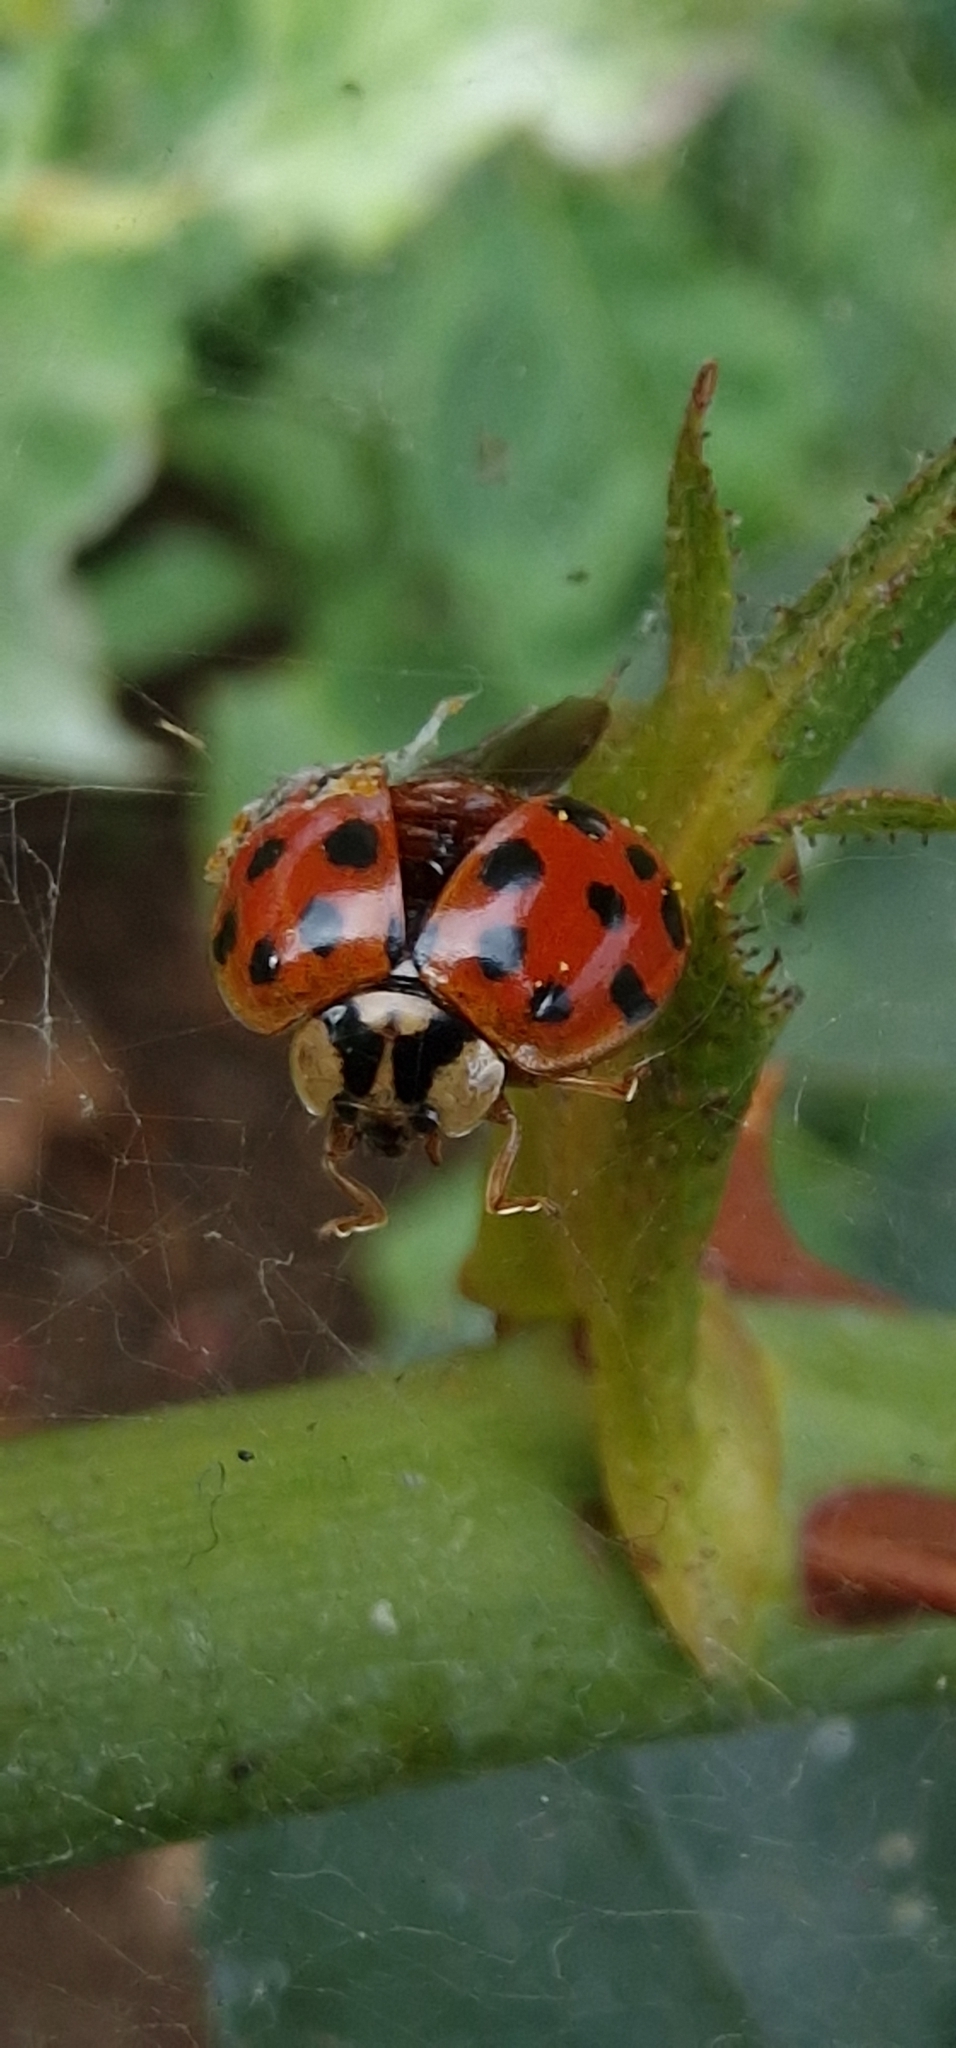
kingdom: Animalia
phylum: Arthropoda
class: Insecta
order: Coleoptera
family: Coccinellidae
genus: Harmonia
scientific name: Harmonia axyridis
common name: Harlequin ladybird
